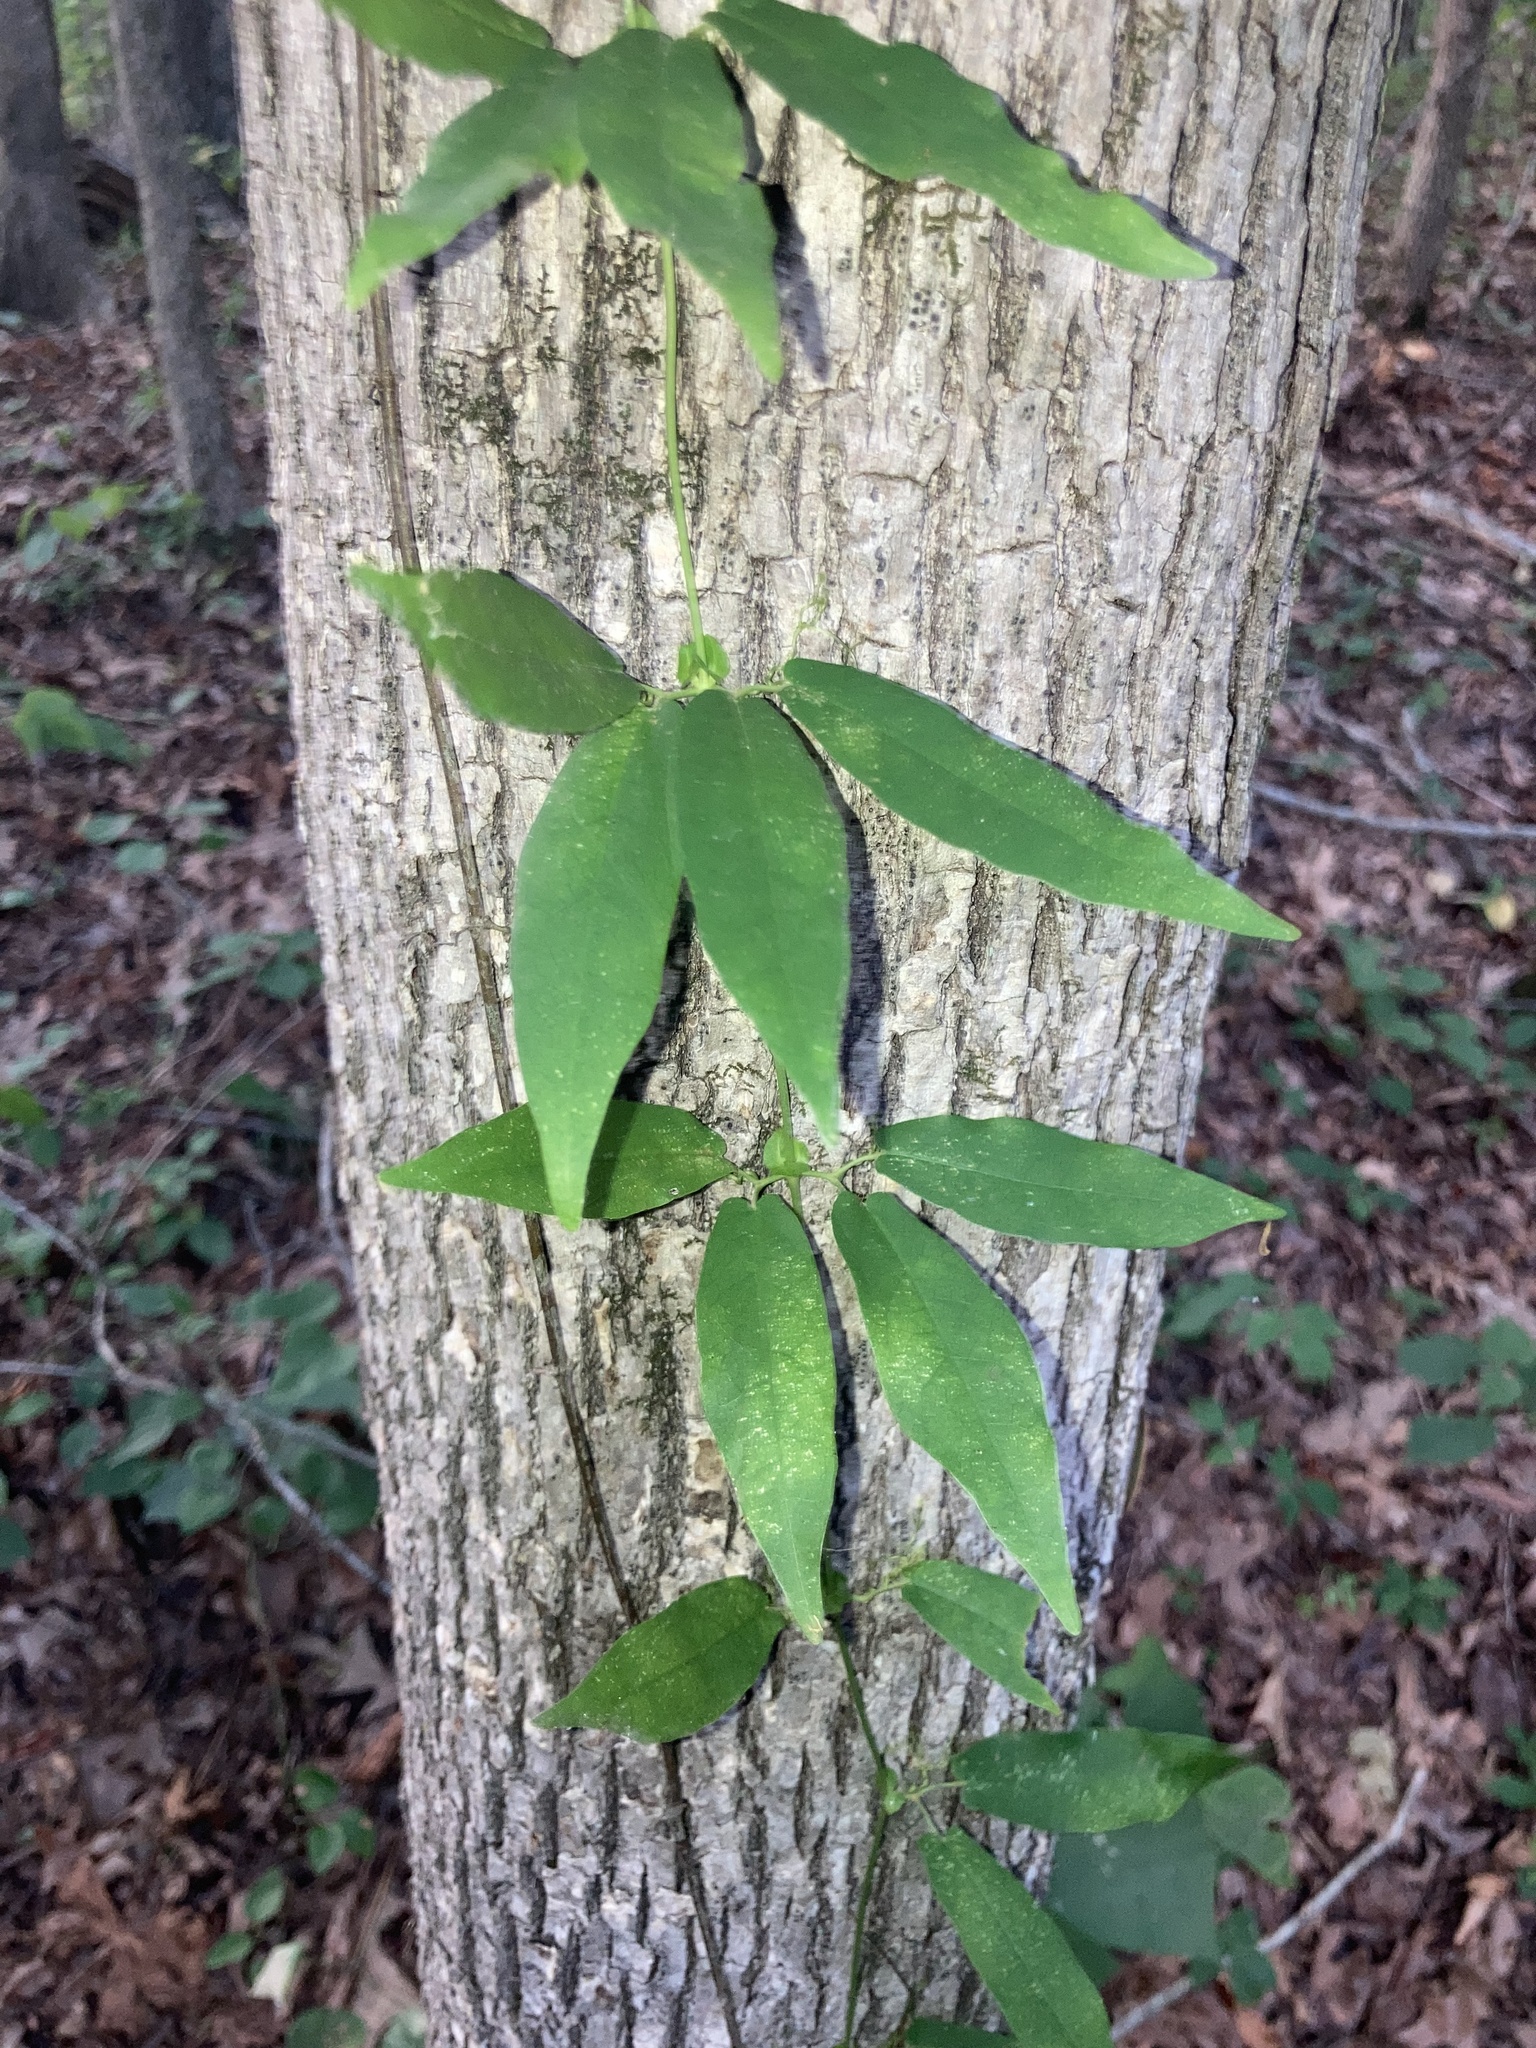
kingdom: Plantae
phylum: Tracheophyta
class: Magnoliopsida
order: Lamiales
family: Bignoniaceae
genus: Bignonia
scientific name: Bignonia capreolata
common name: Crossvine
